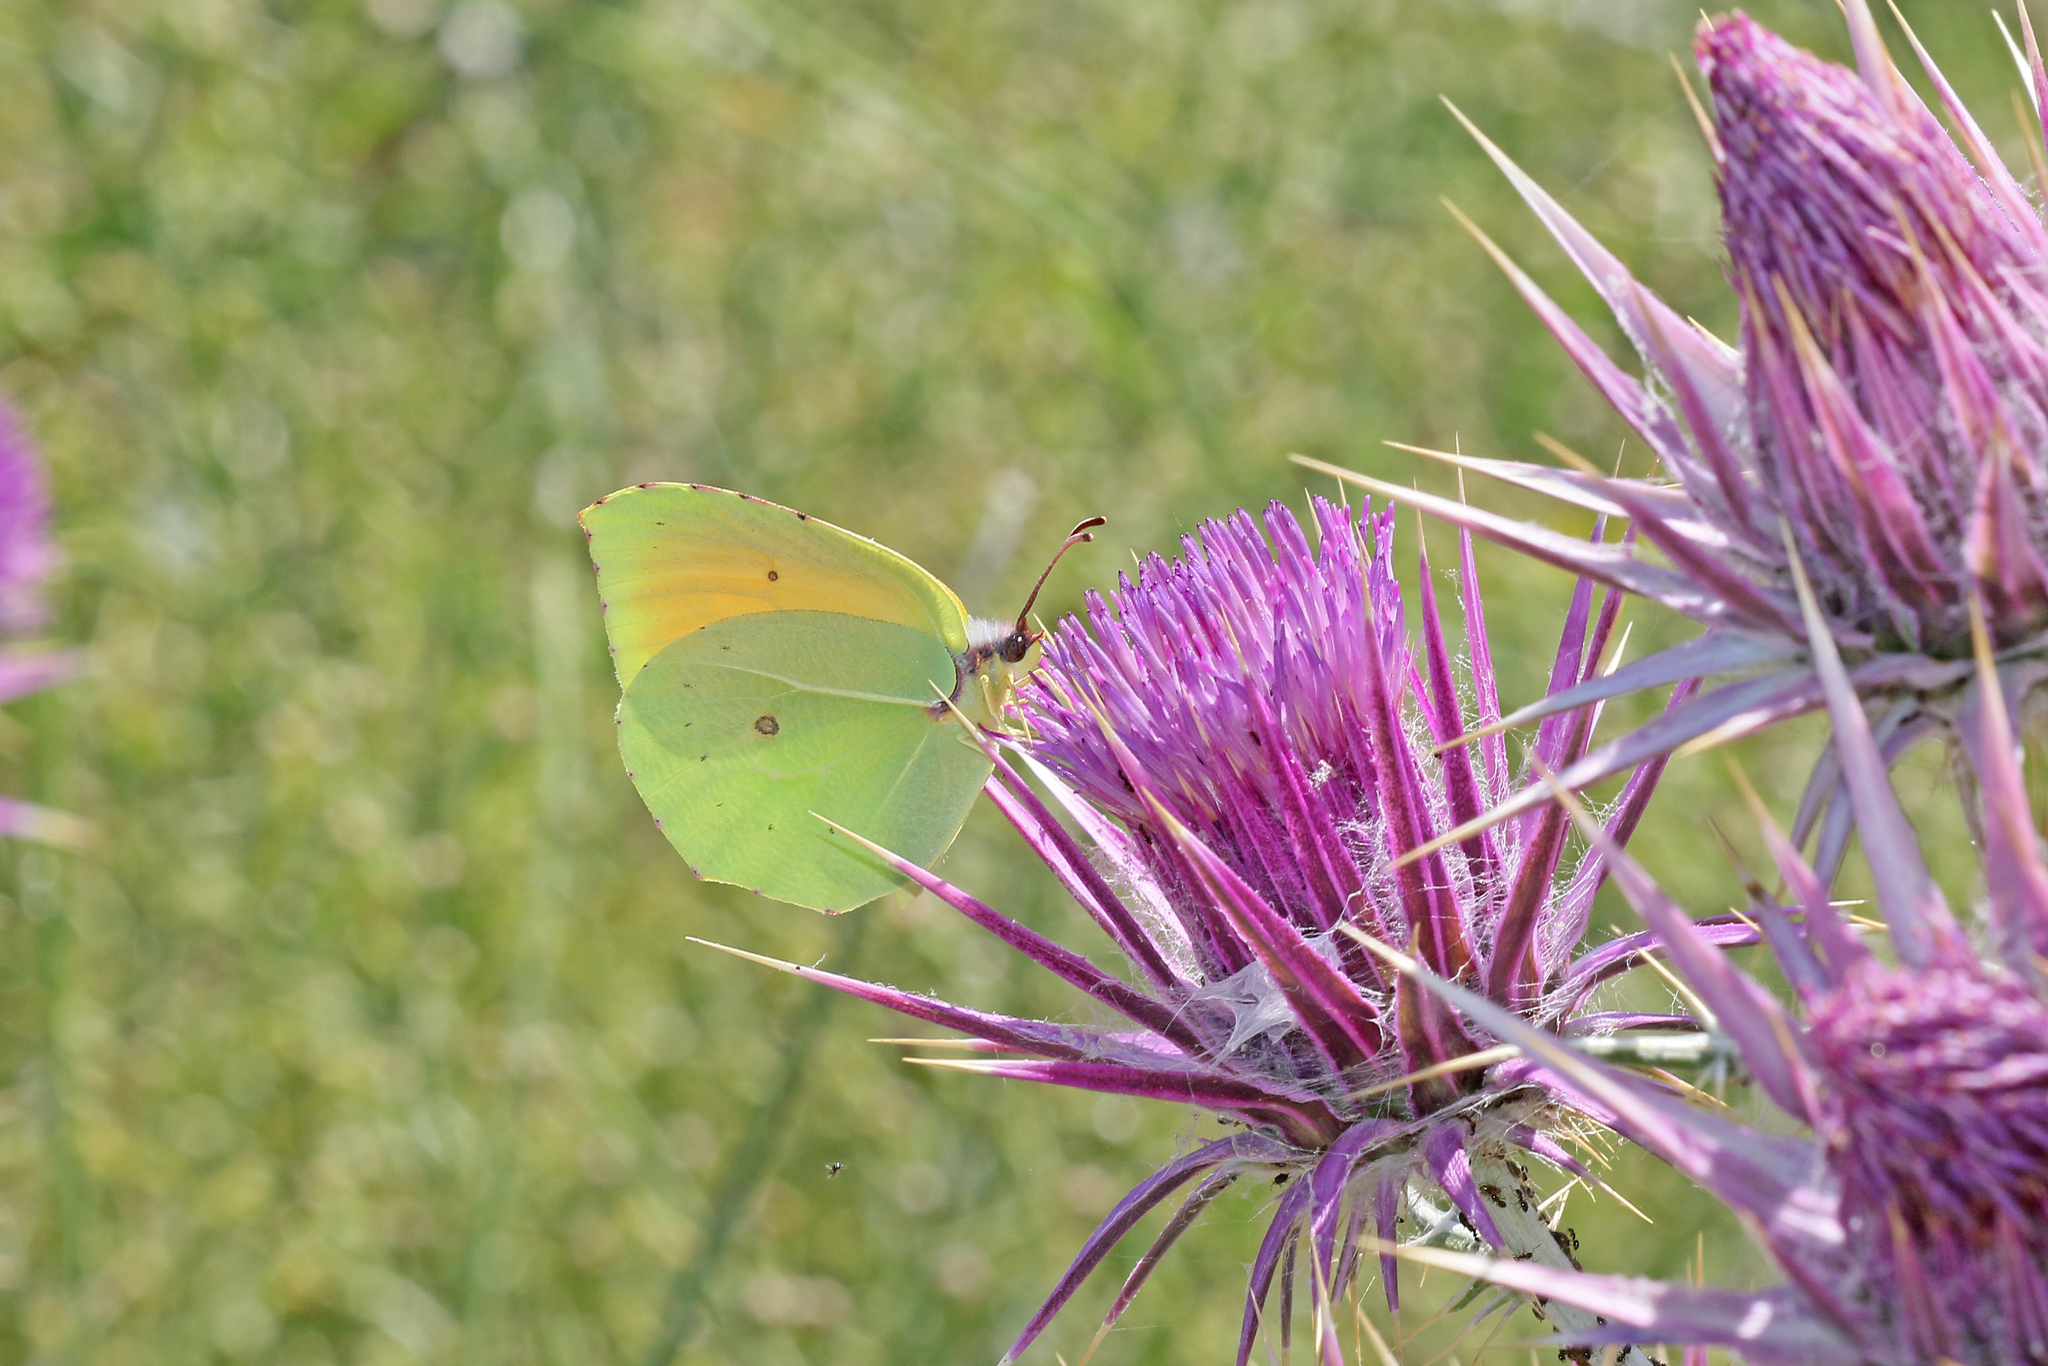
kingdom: Animalia
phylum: Arthropoda
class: Insecta
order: Lepidoptera
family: Pieridae
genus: Gonepteryx
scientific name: Gonepteryx cleopatra
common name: Cleopatra
